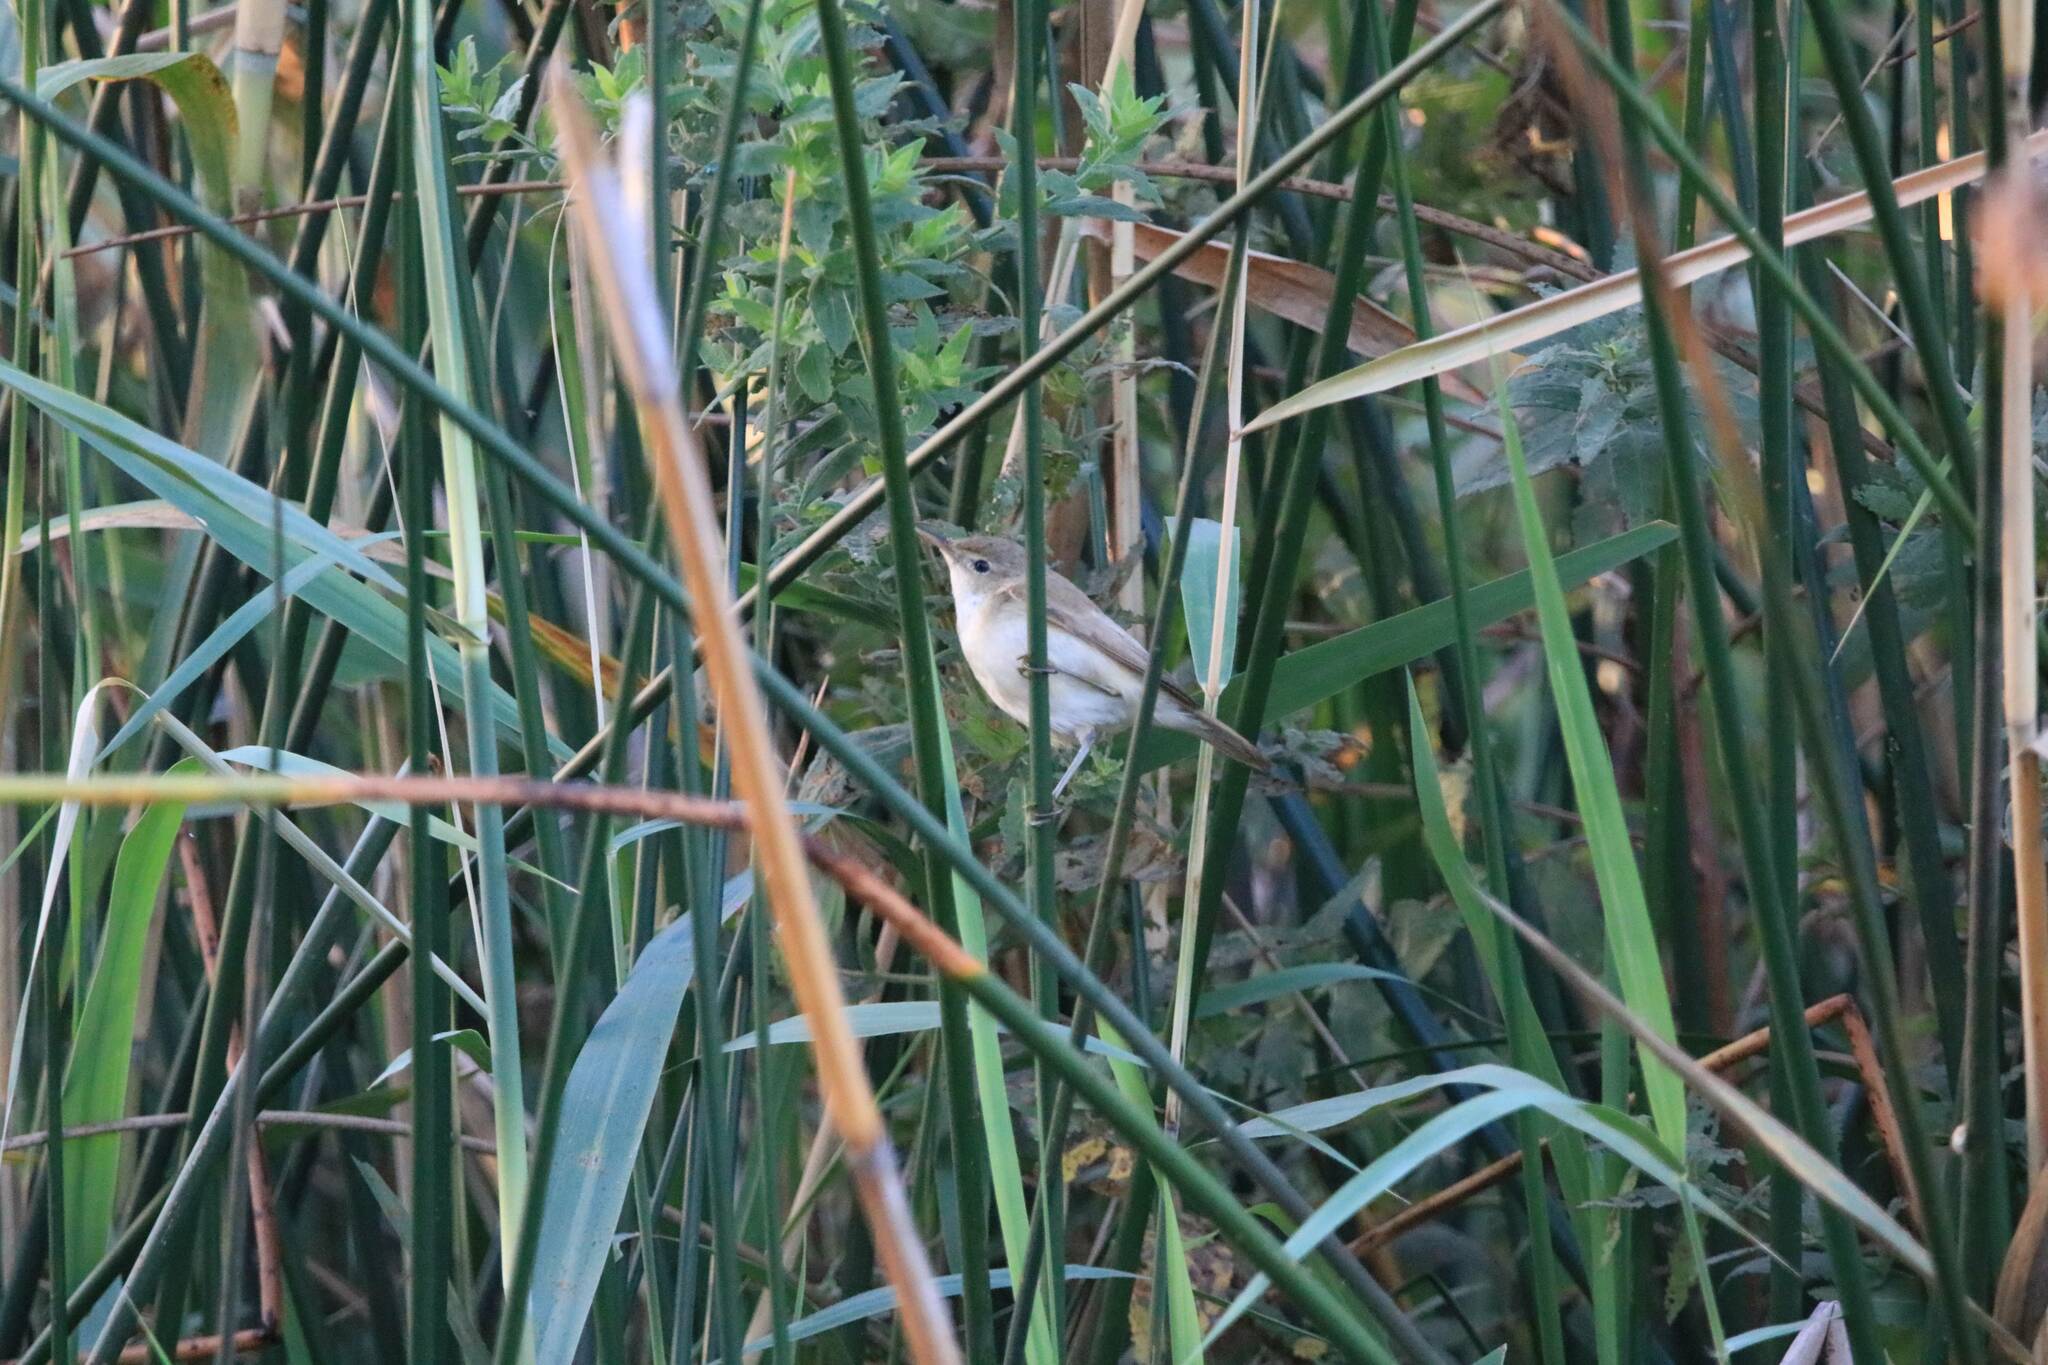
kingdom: Animalia
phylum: Chordata
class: Aves
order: Passeriformes
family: Acrocephalidae
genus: Acrocephalus
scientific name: Acrocephalus scirpaceus
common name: Eurasian reed warbler
